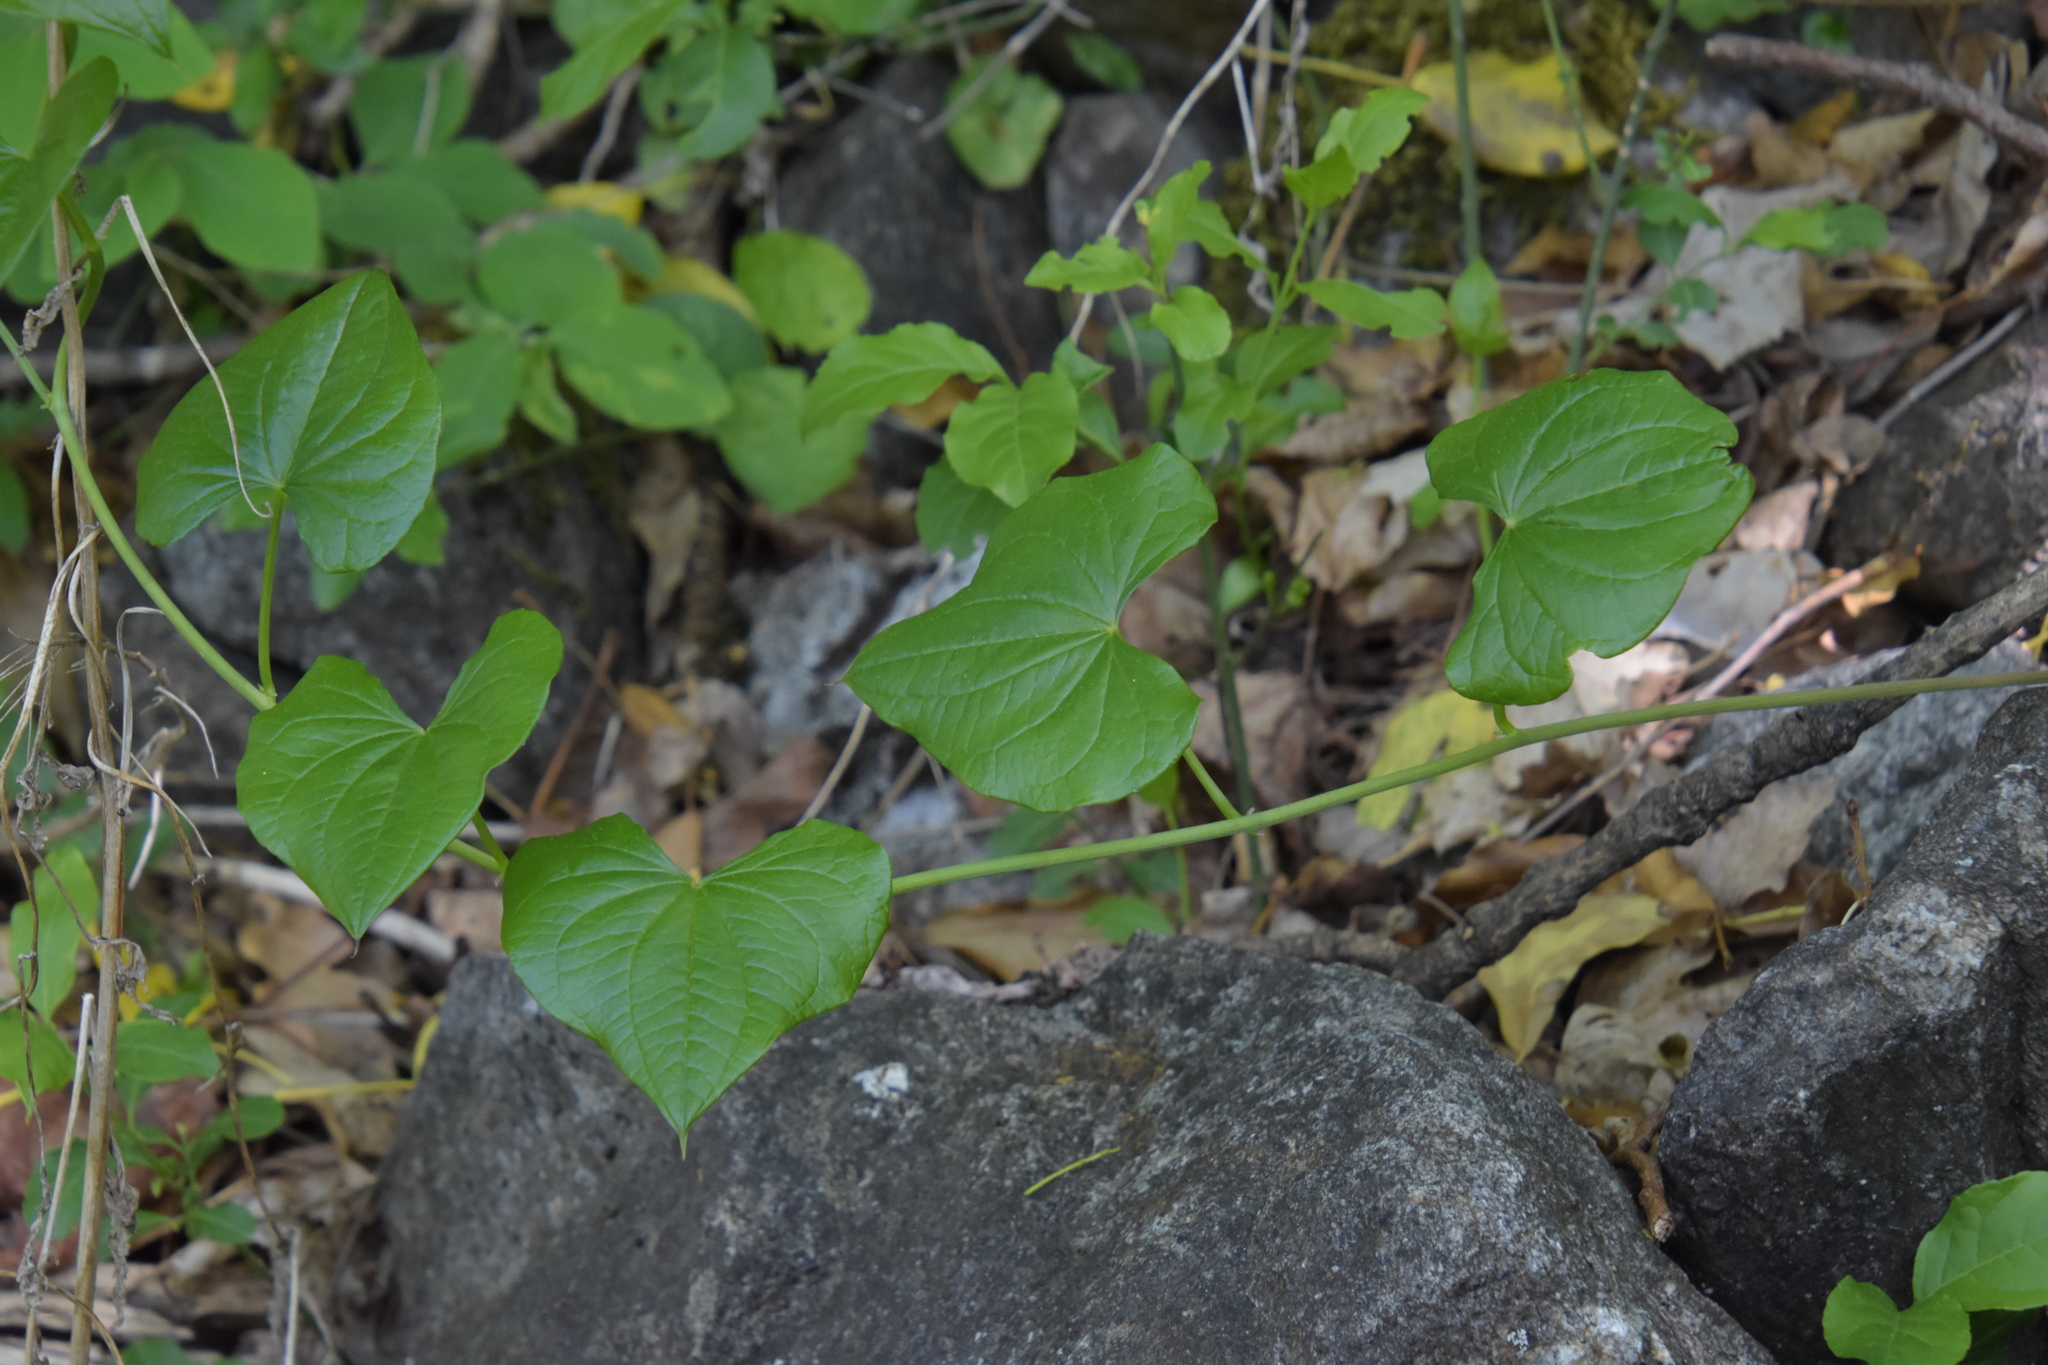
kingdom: Plantae
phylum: Tracheophyta
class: Liliopsida
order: Dioscoreales
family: Dioscoreaceae
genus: Dioscorea
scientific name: Dioscorea communis
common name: Black-bindweed
